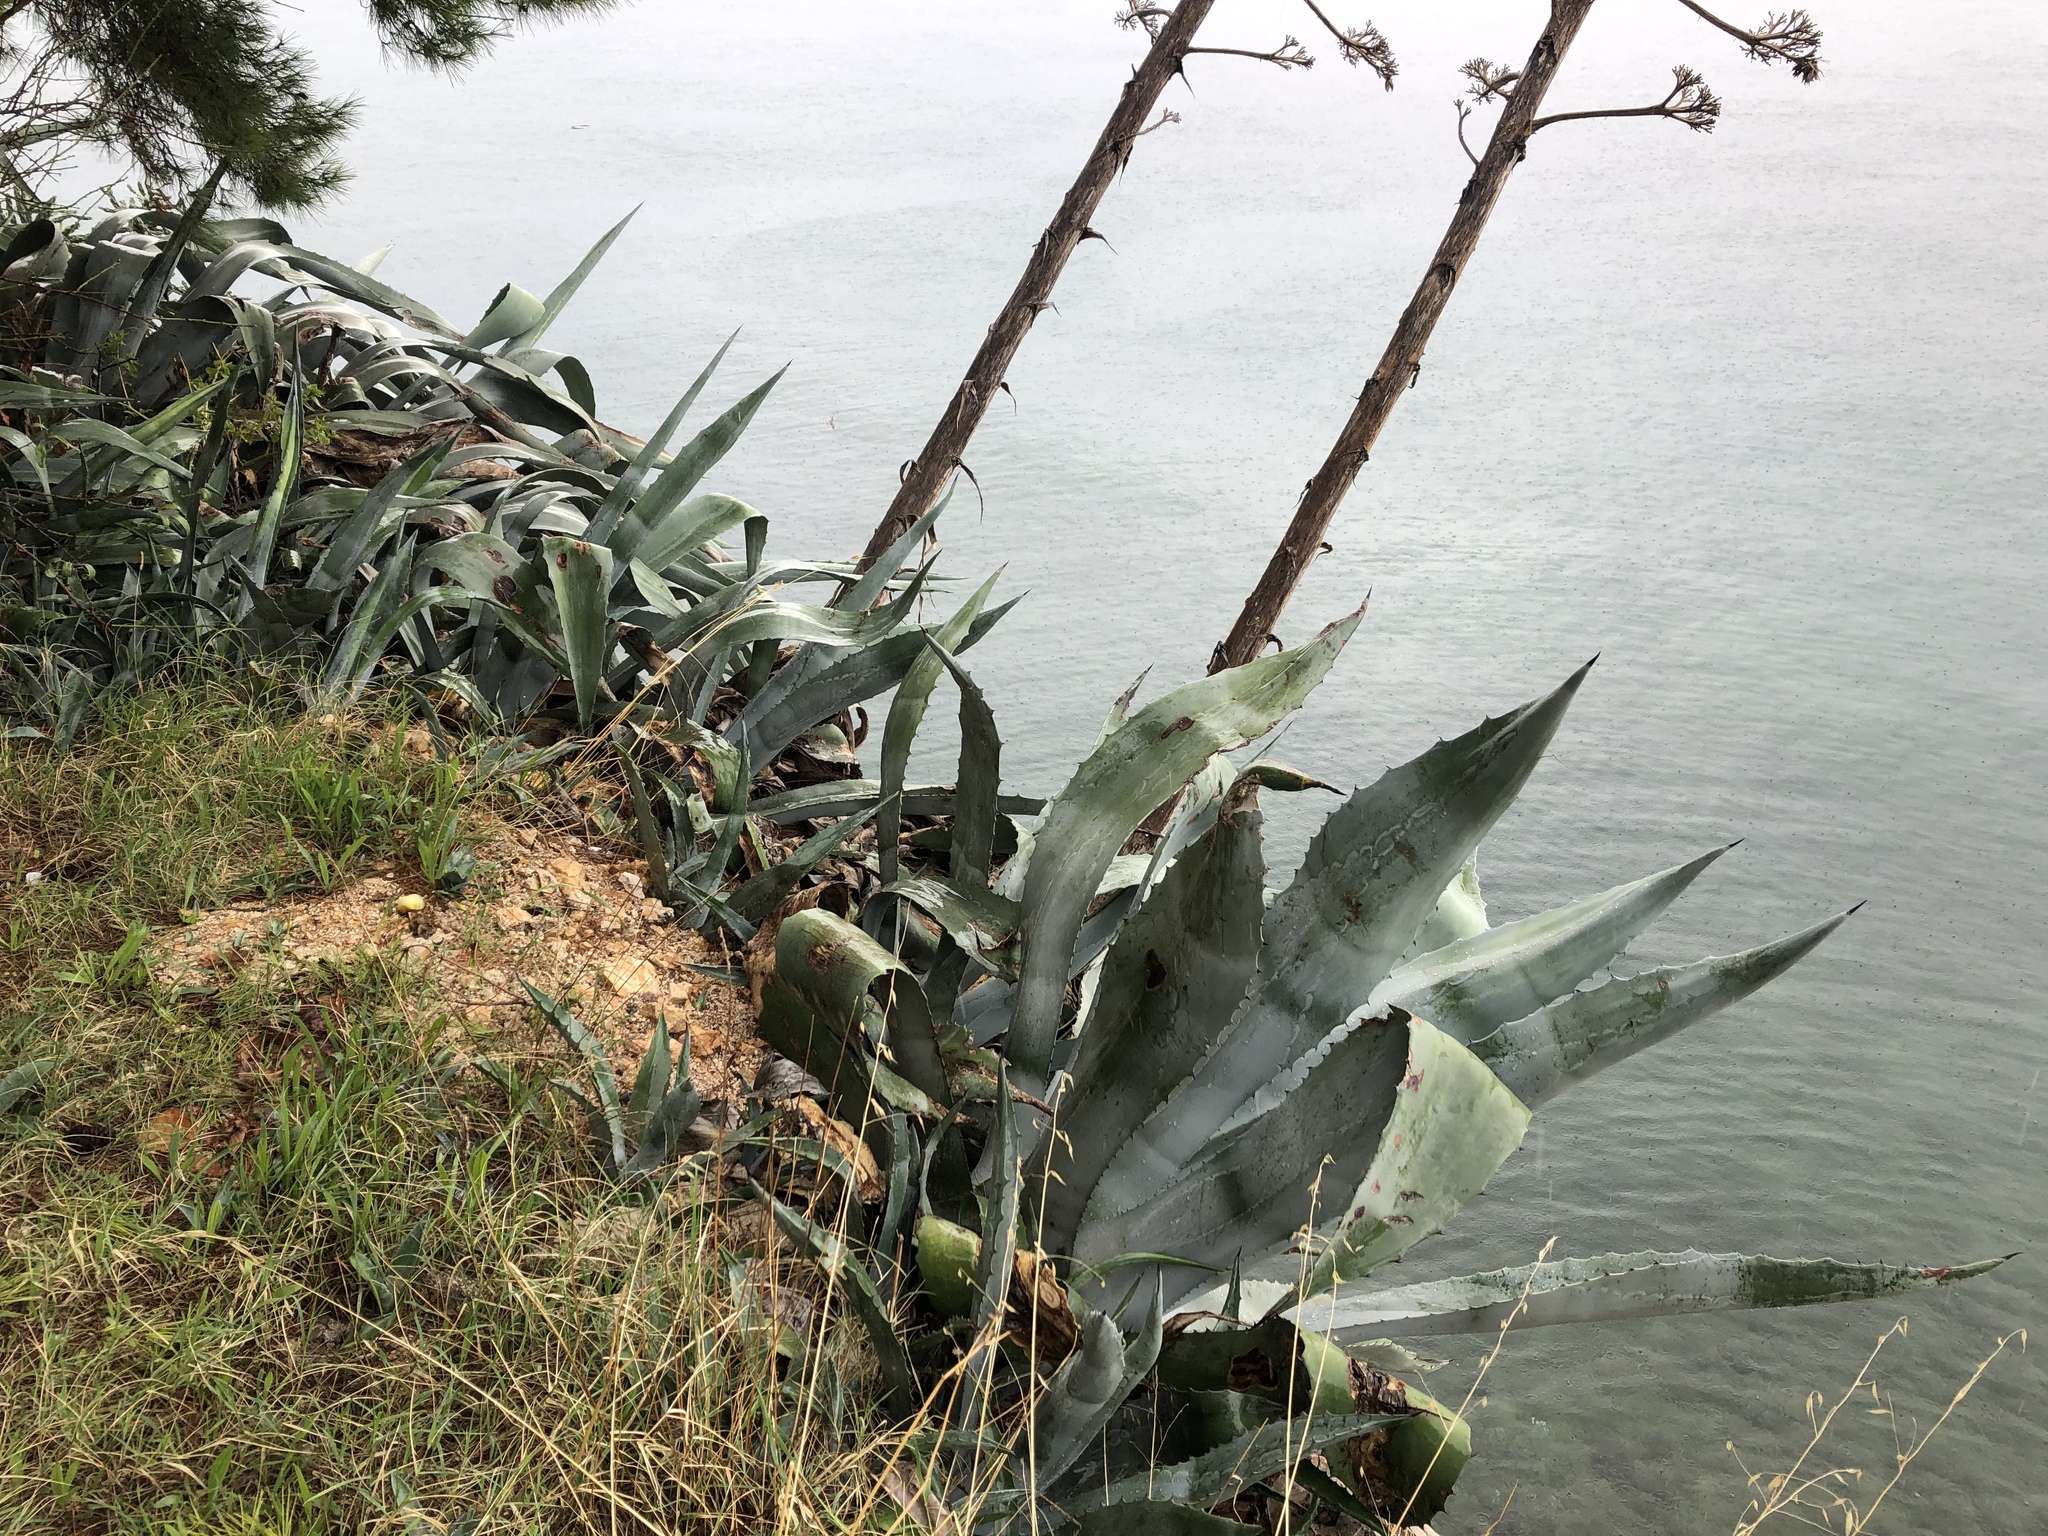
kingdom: Plantae
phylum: Tracheophyta
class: Liliopsida
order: Asparagales
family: Asparagaceae
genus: Agave
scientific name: Agave americana
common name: Centuryplant
